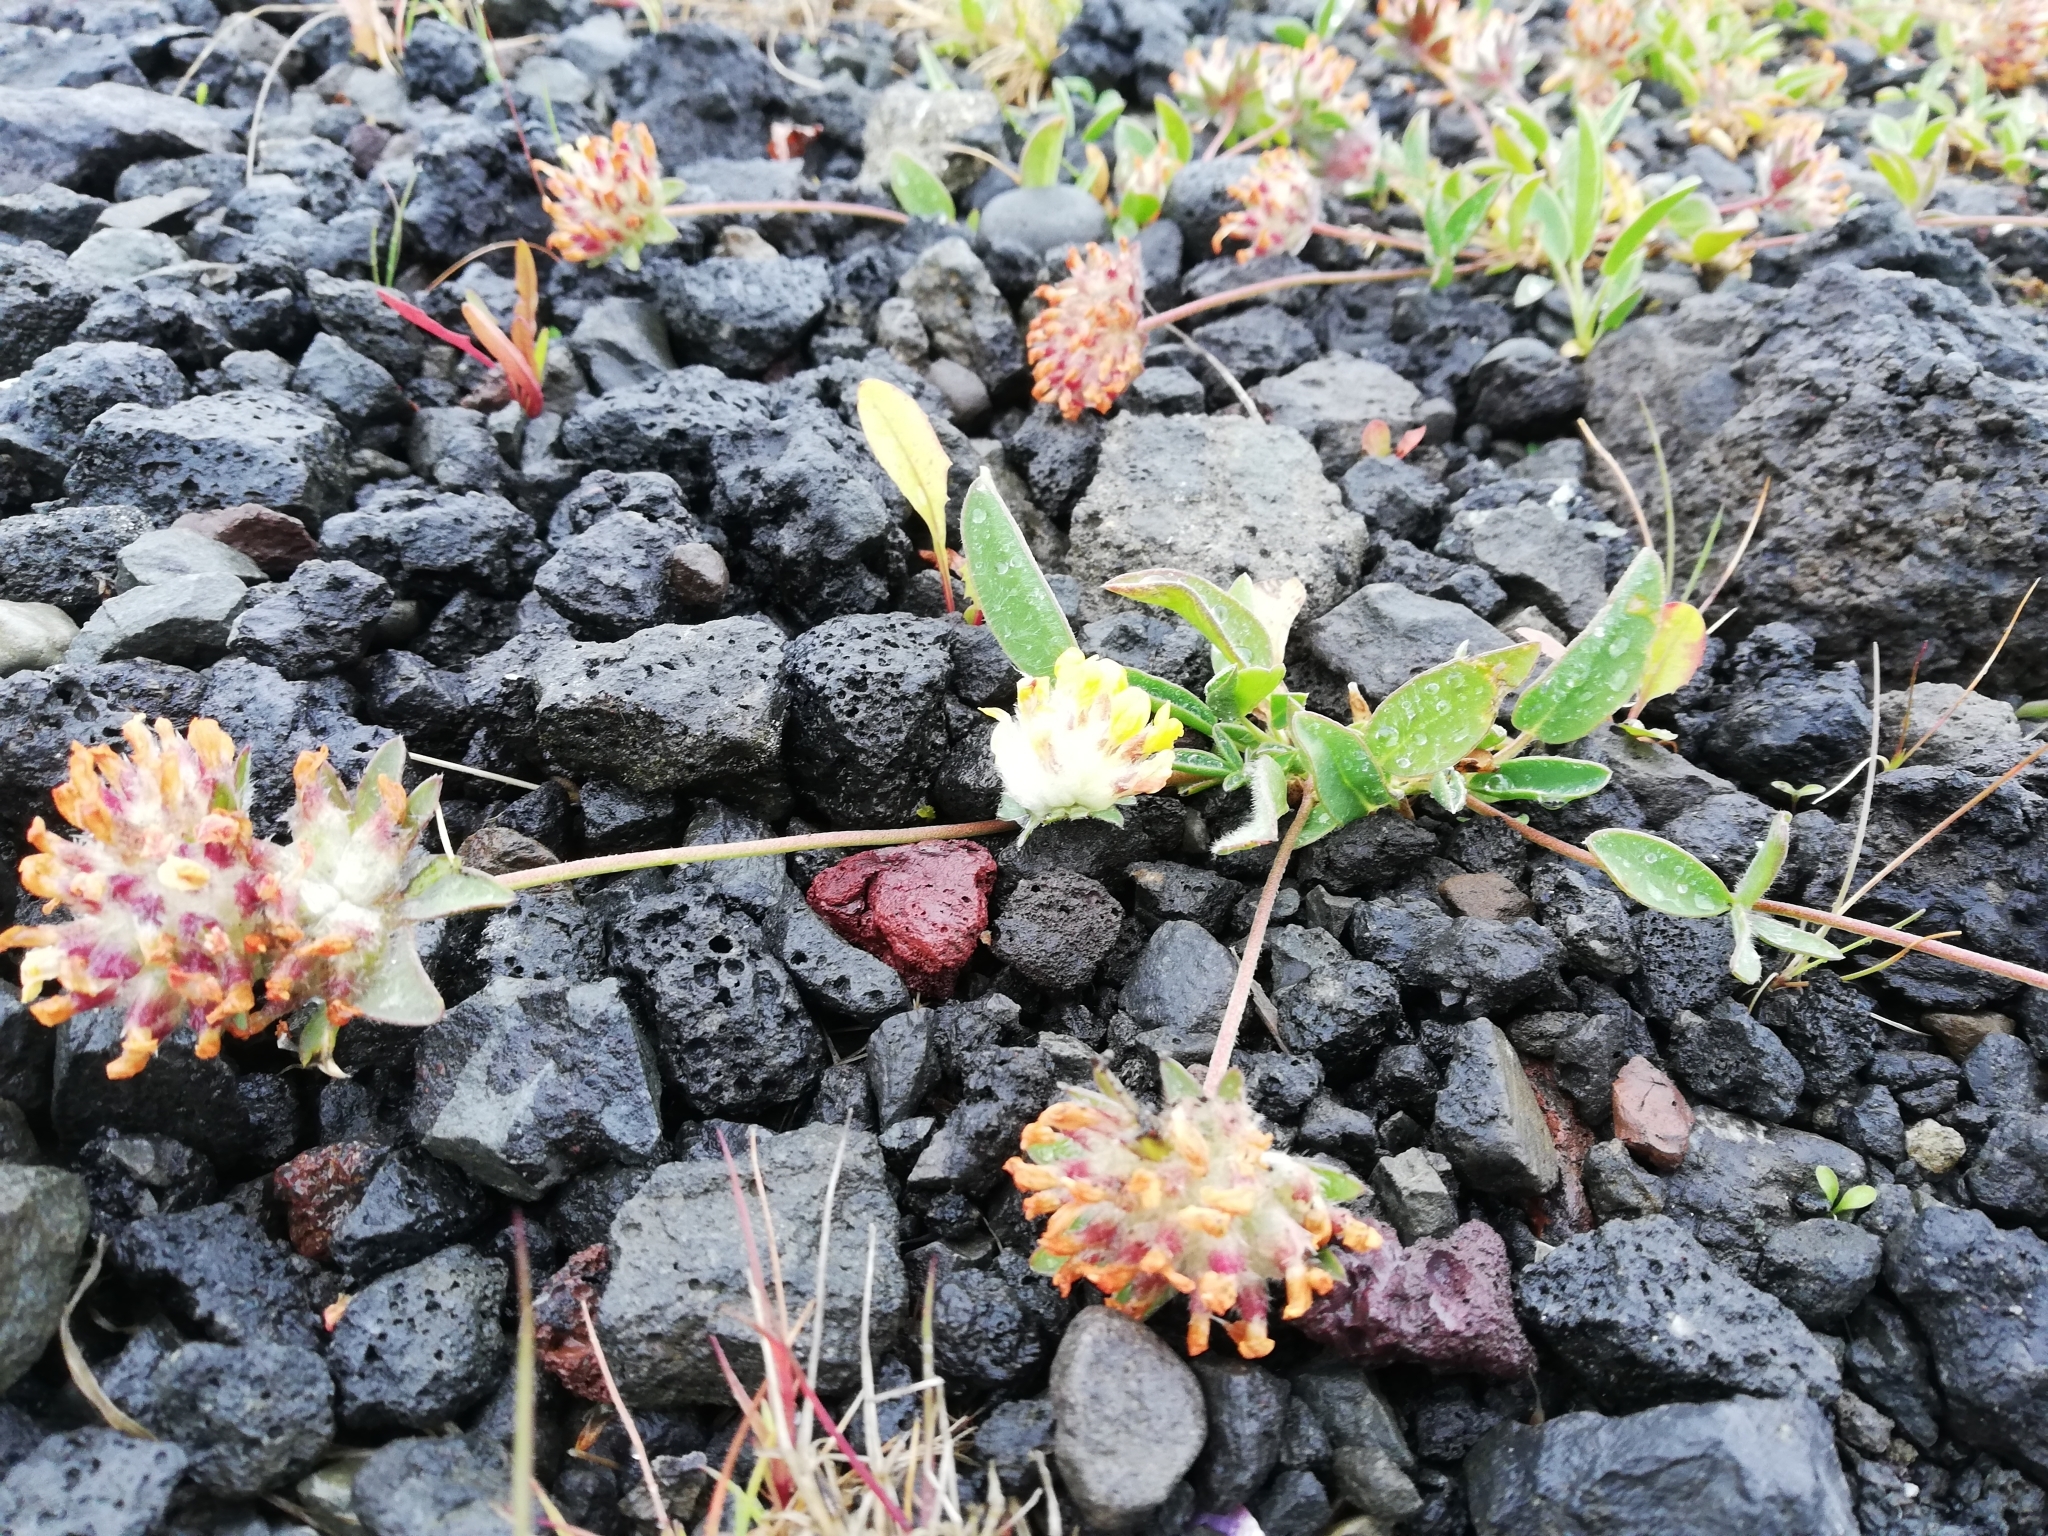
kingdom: Plantae
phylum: Tracheophyta
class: Magnoliopsida
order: Fabales
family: Fabaceae
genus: Anthyllis
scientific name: Anthyllis vulneraria
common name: Kidney vetch
